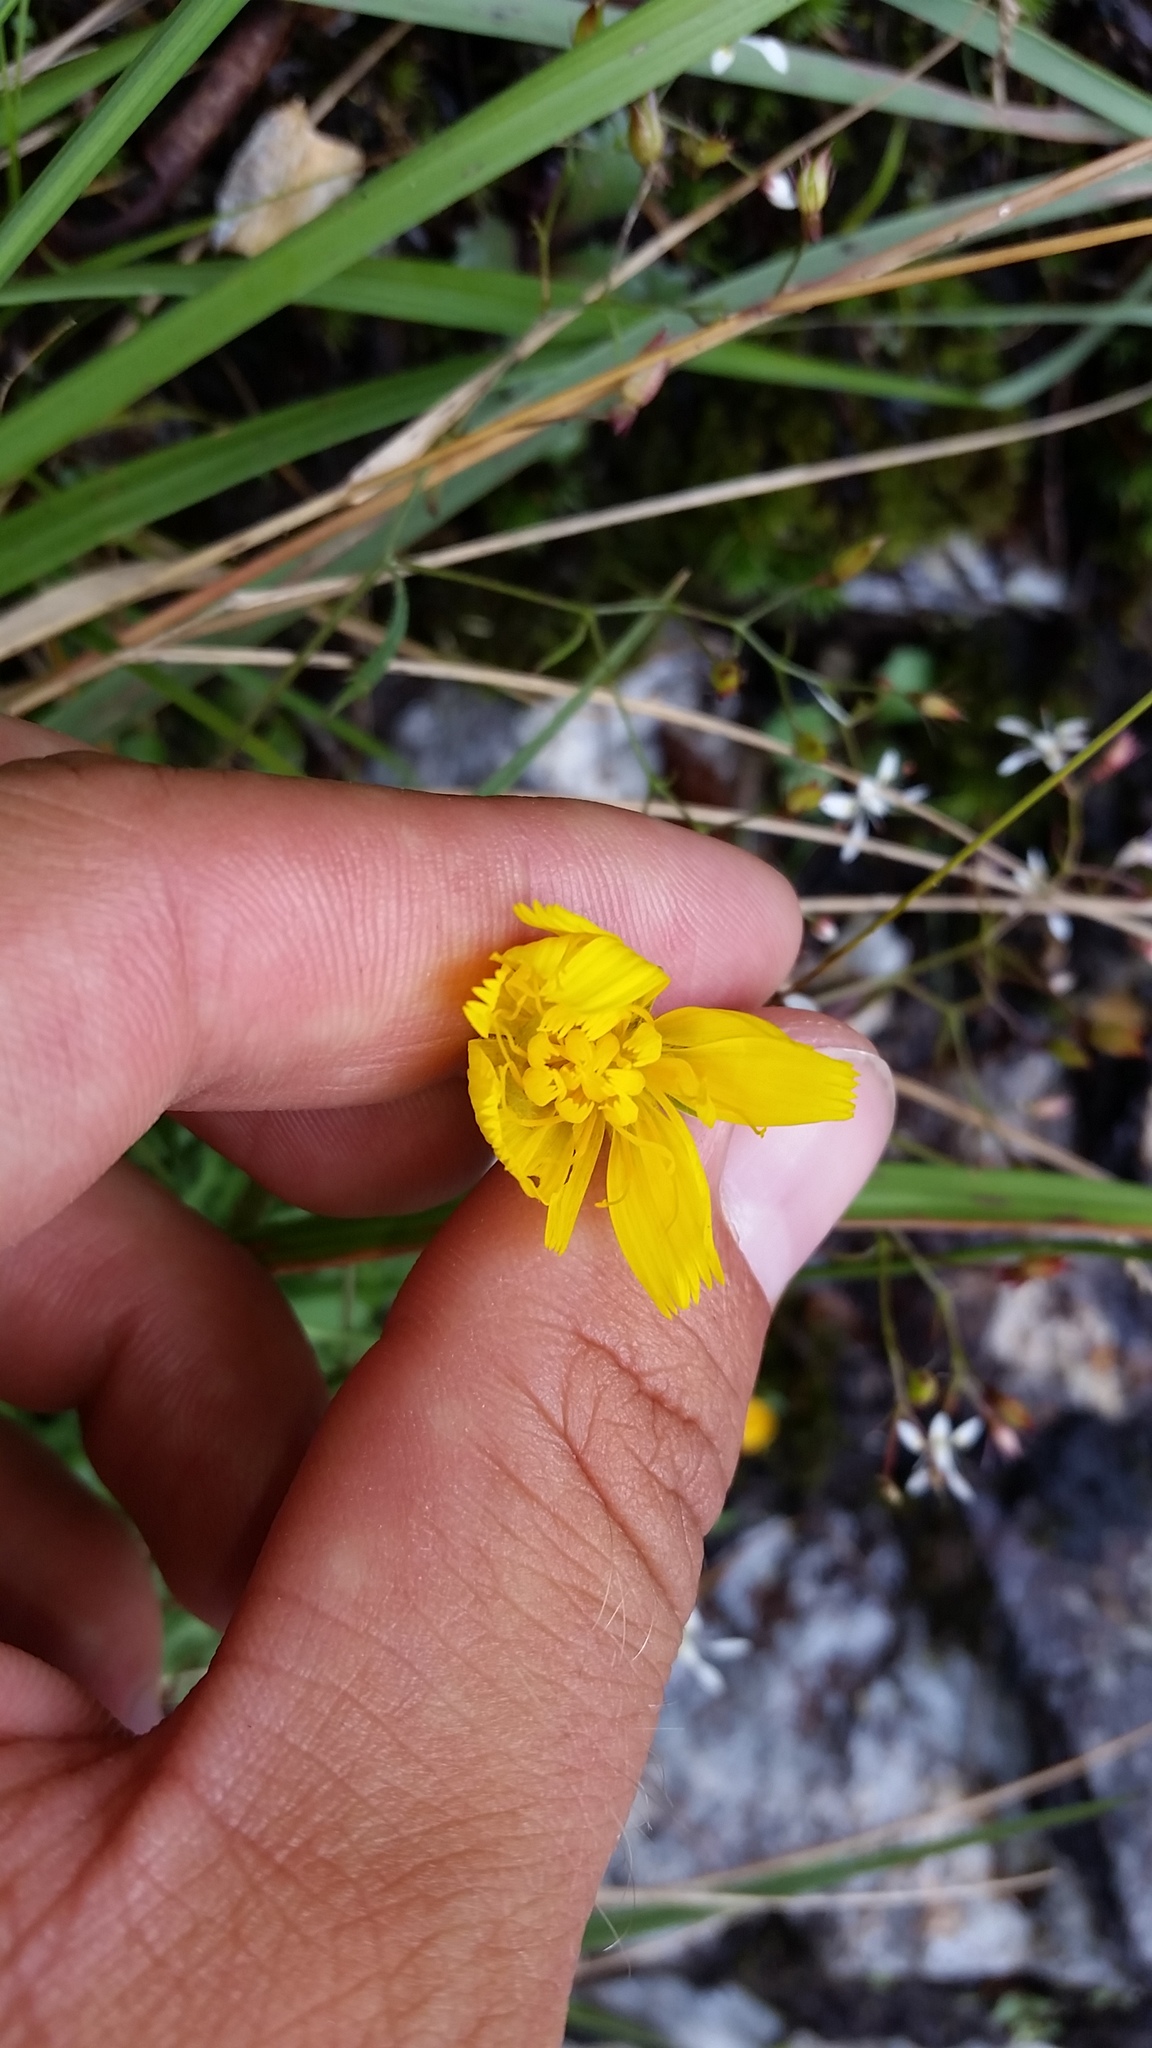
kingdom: Plantae
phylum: Tracheophyta
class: Magnoliopsida
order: Asterales
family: Asteraceae
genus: Krigia
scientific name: Krigia montana
